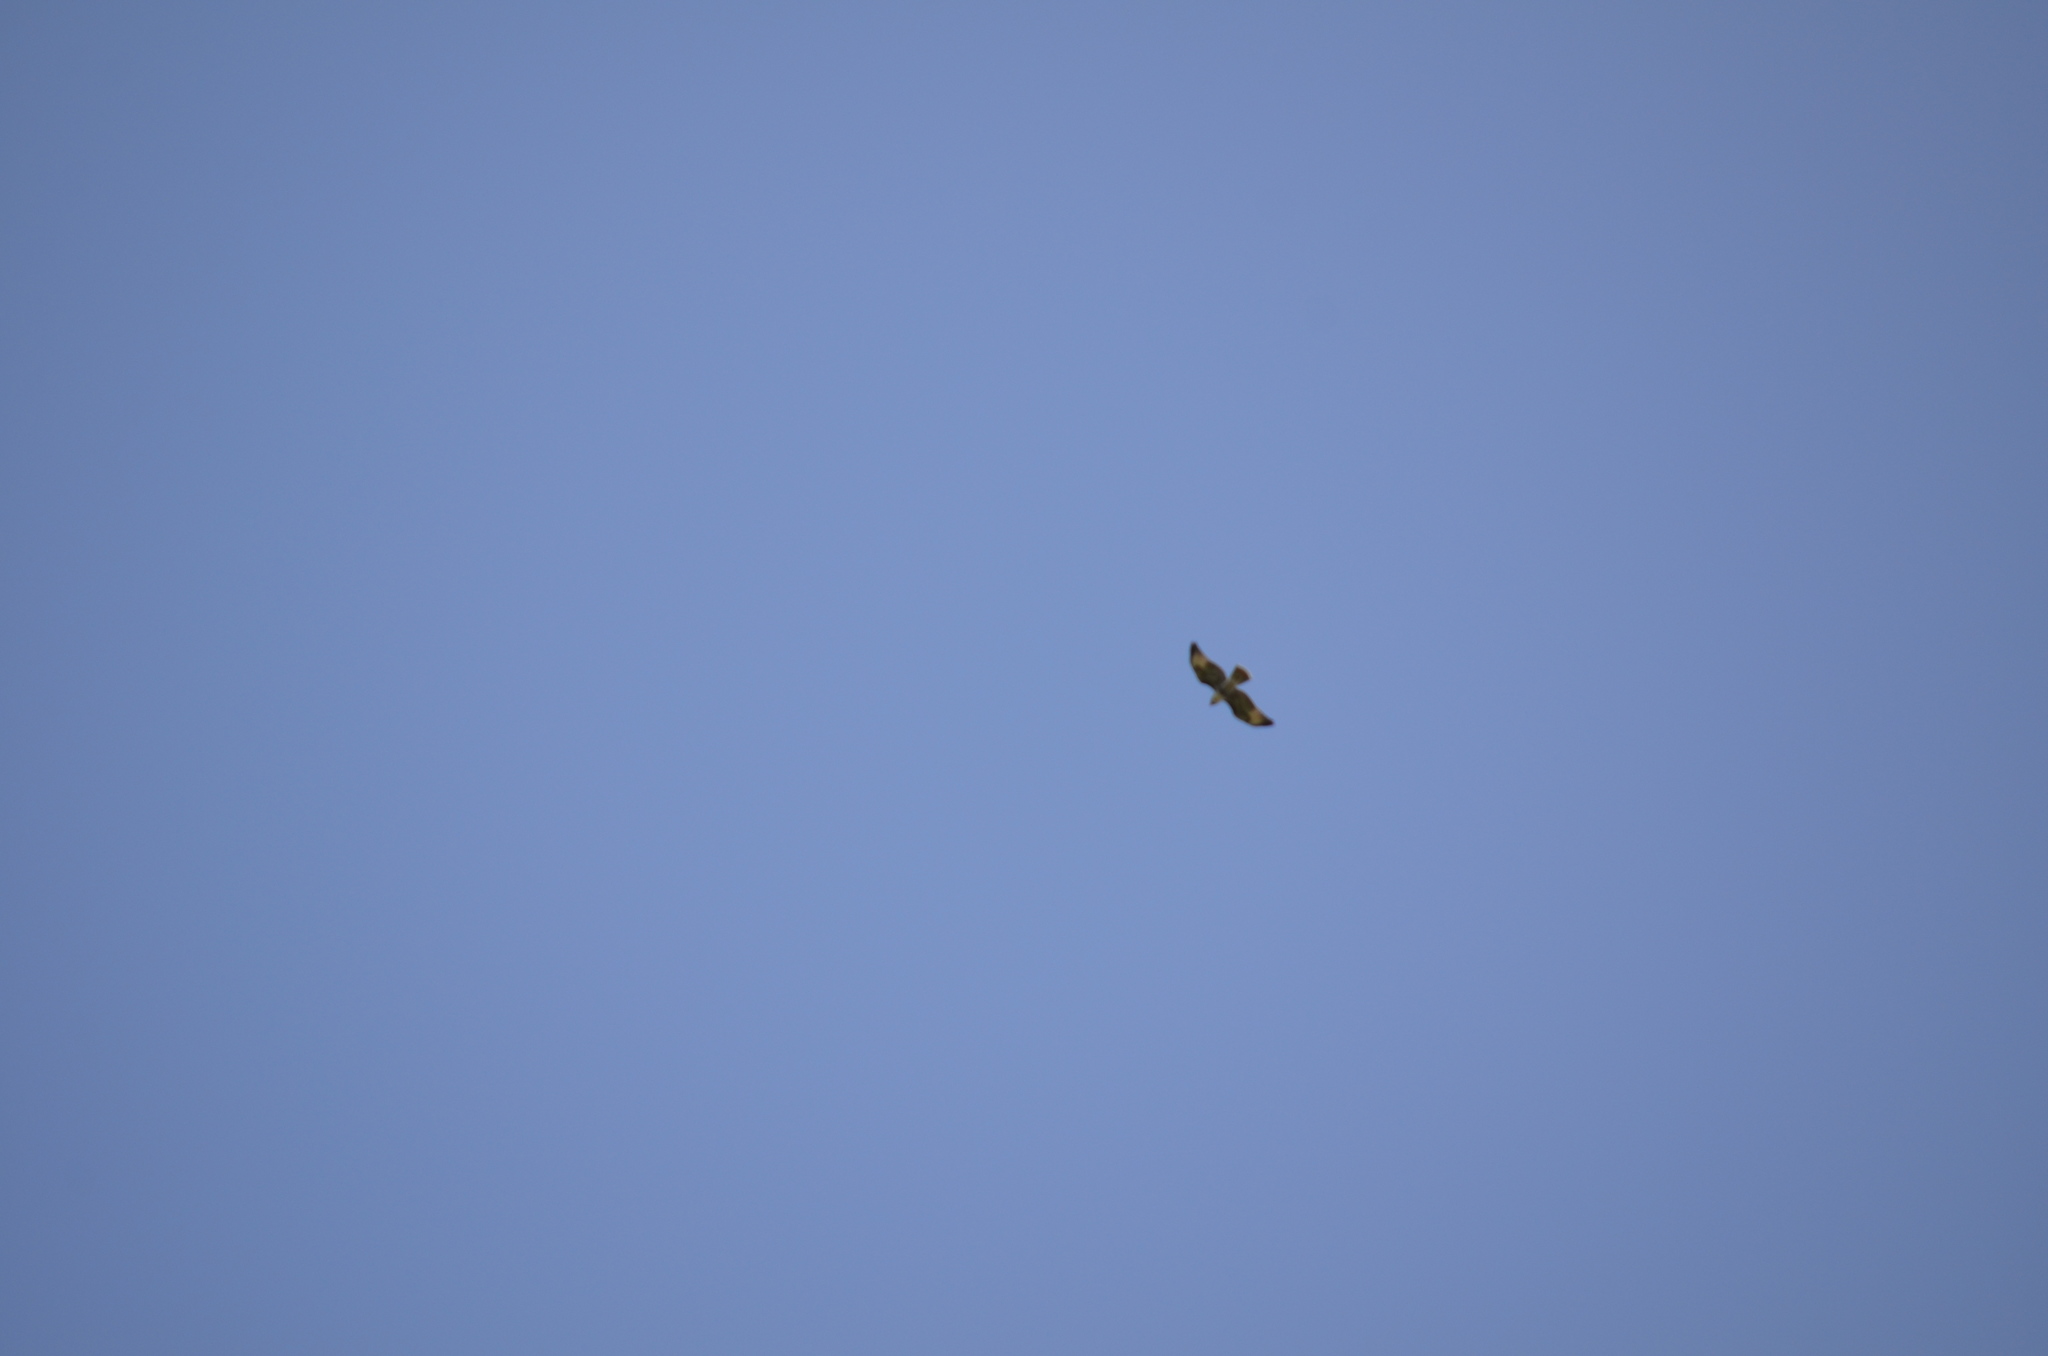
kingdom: Animalia
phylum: Chordata
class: Aves
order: Accipitriformes
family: Accipitridae
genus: Buteo
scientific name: Buteo jamaicensis
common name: Red-tailed hawk
